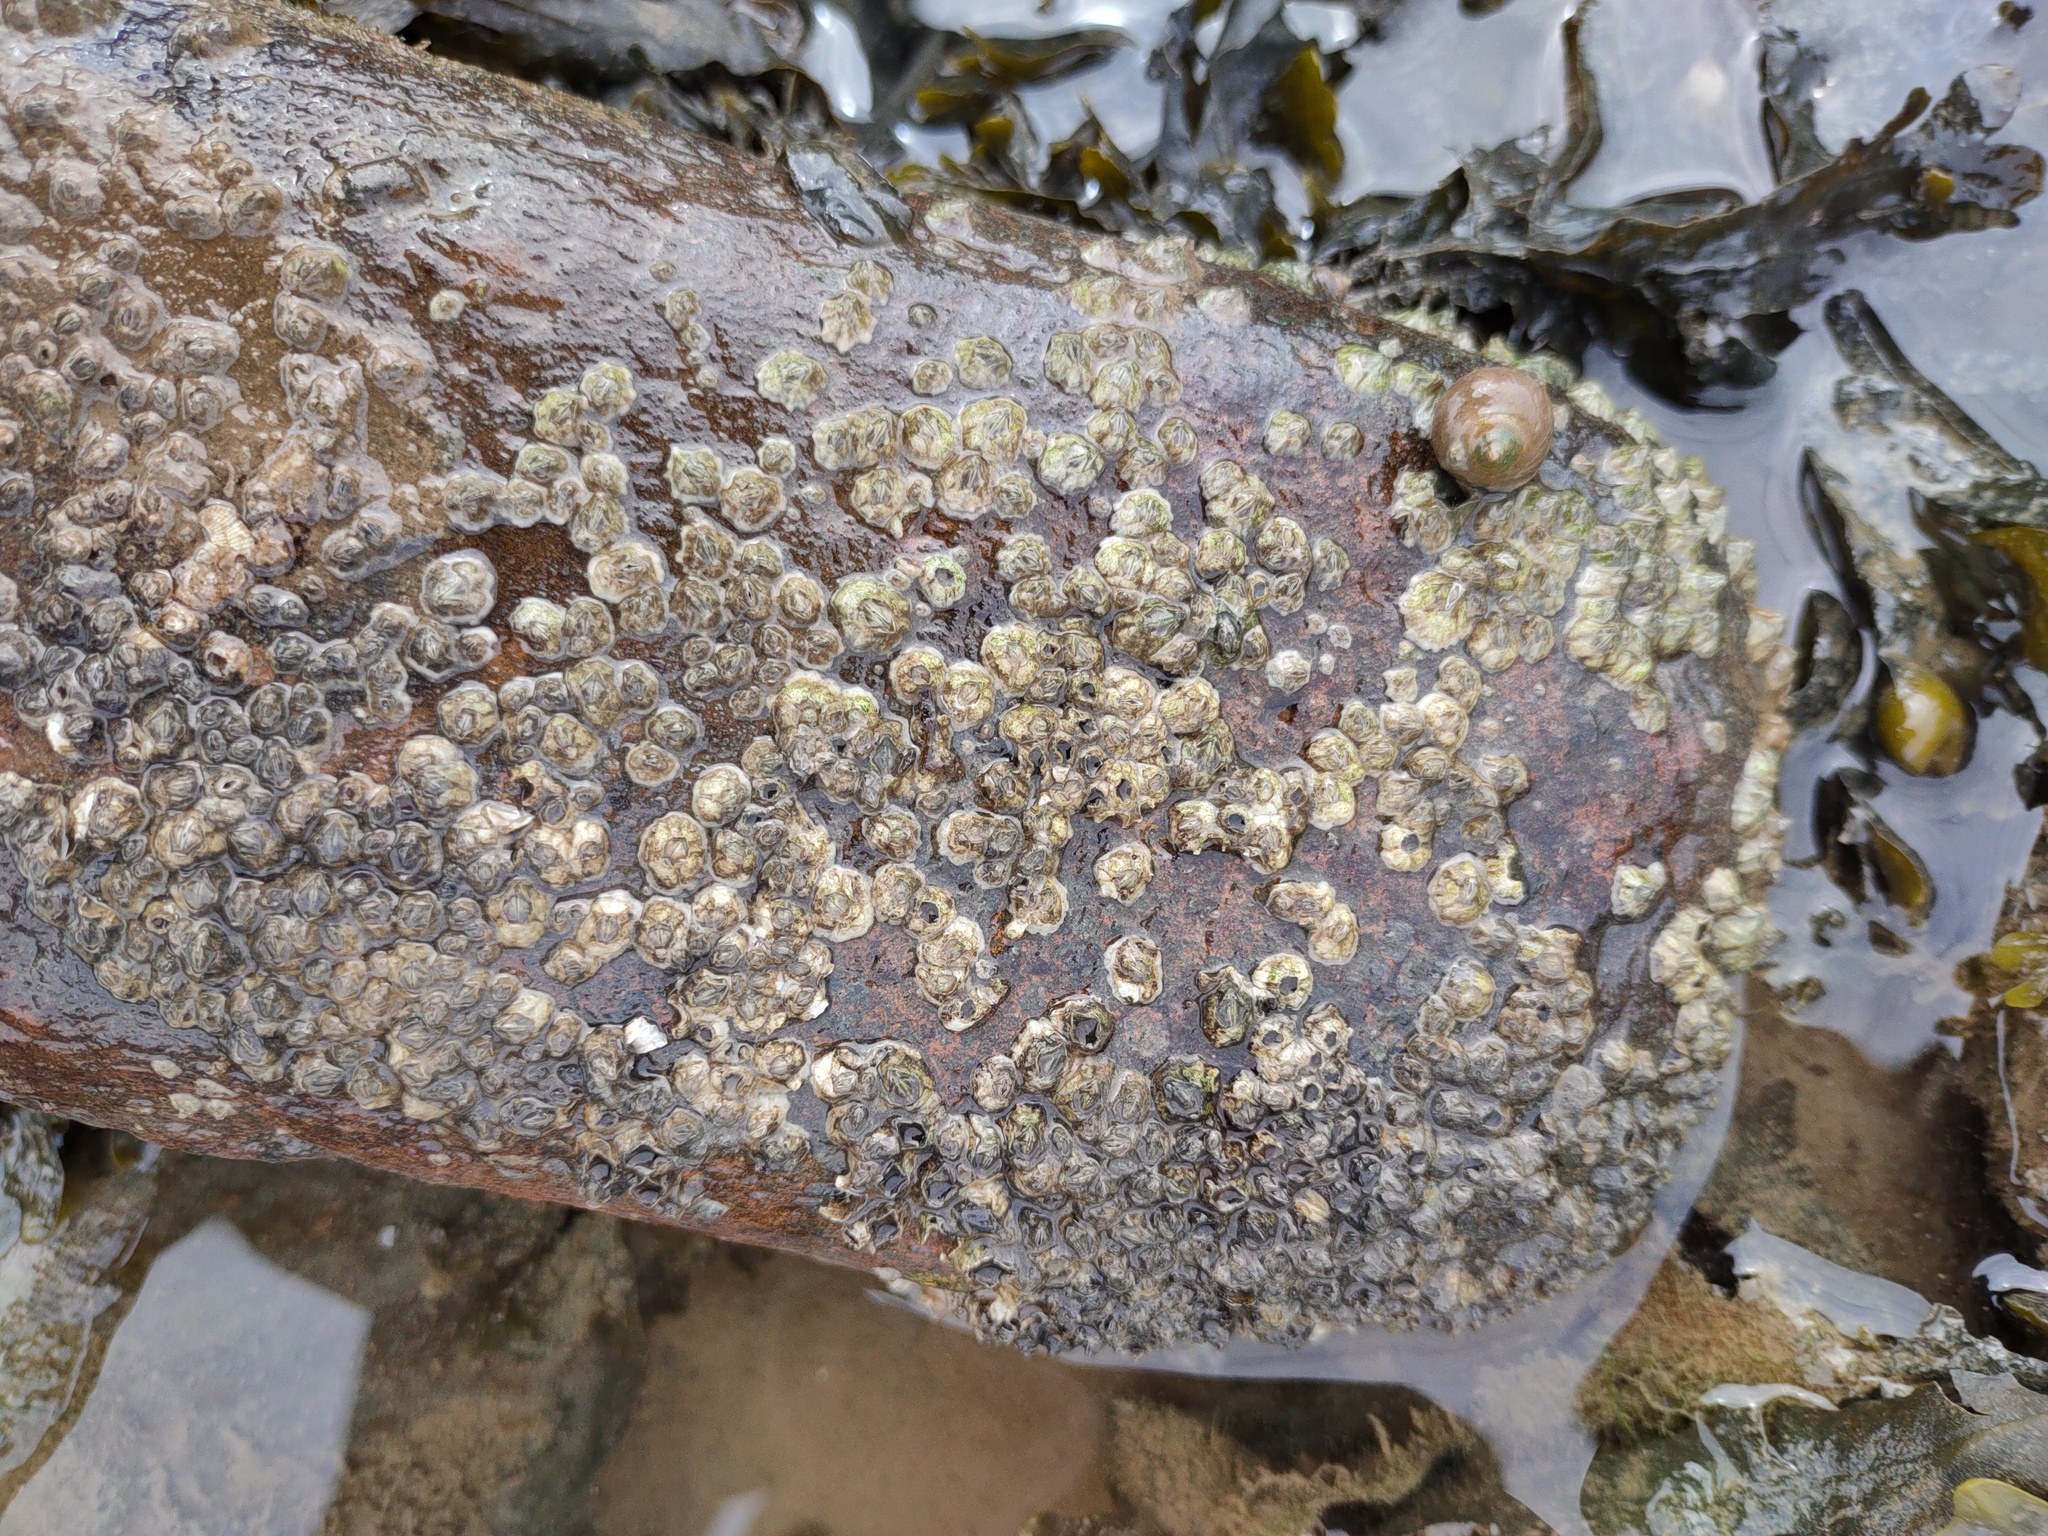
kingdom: Animalia
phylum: Arthropoda
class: Maxillopoda
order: Sessilia
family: Archaeobalanidae
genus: Semibalanus
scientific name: Semibalanus balanoides
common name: Acorn barnacle
